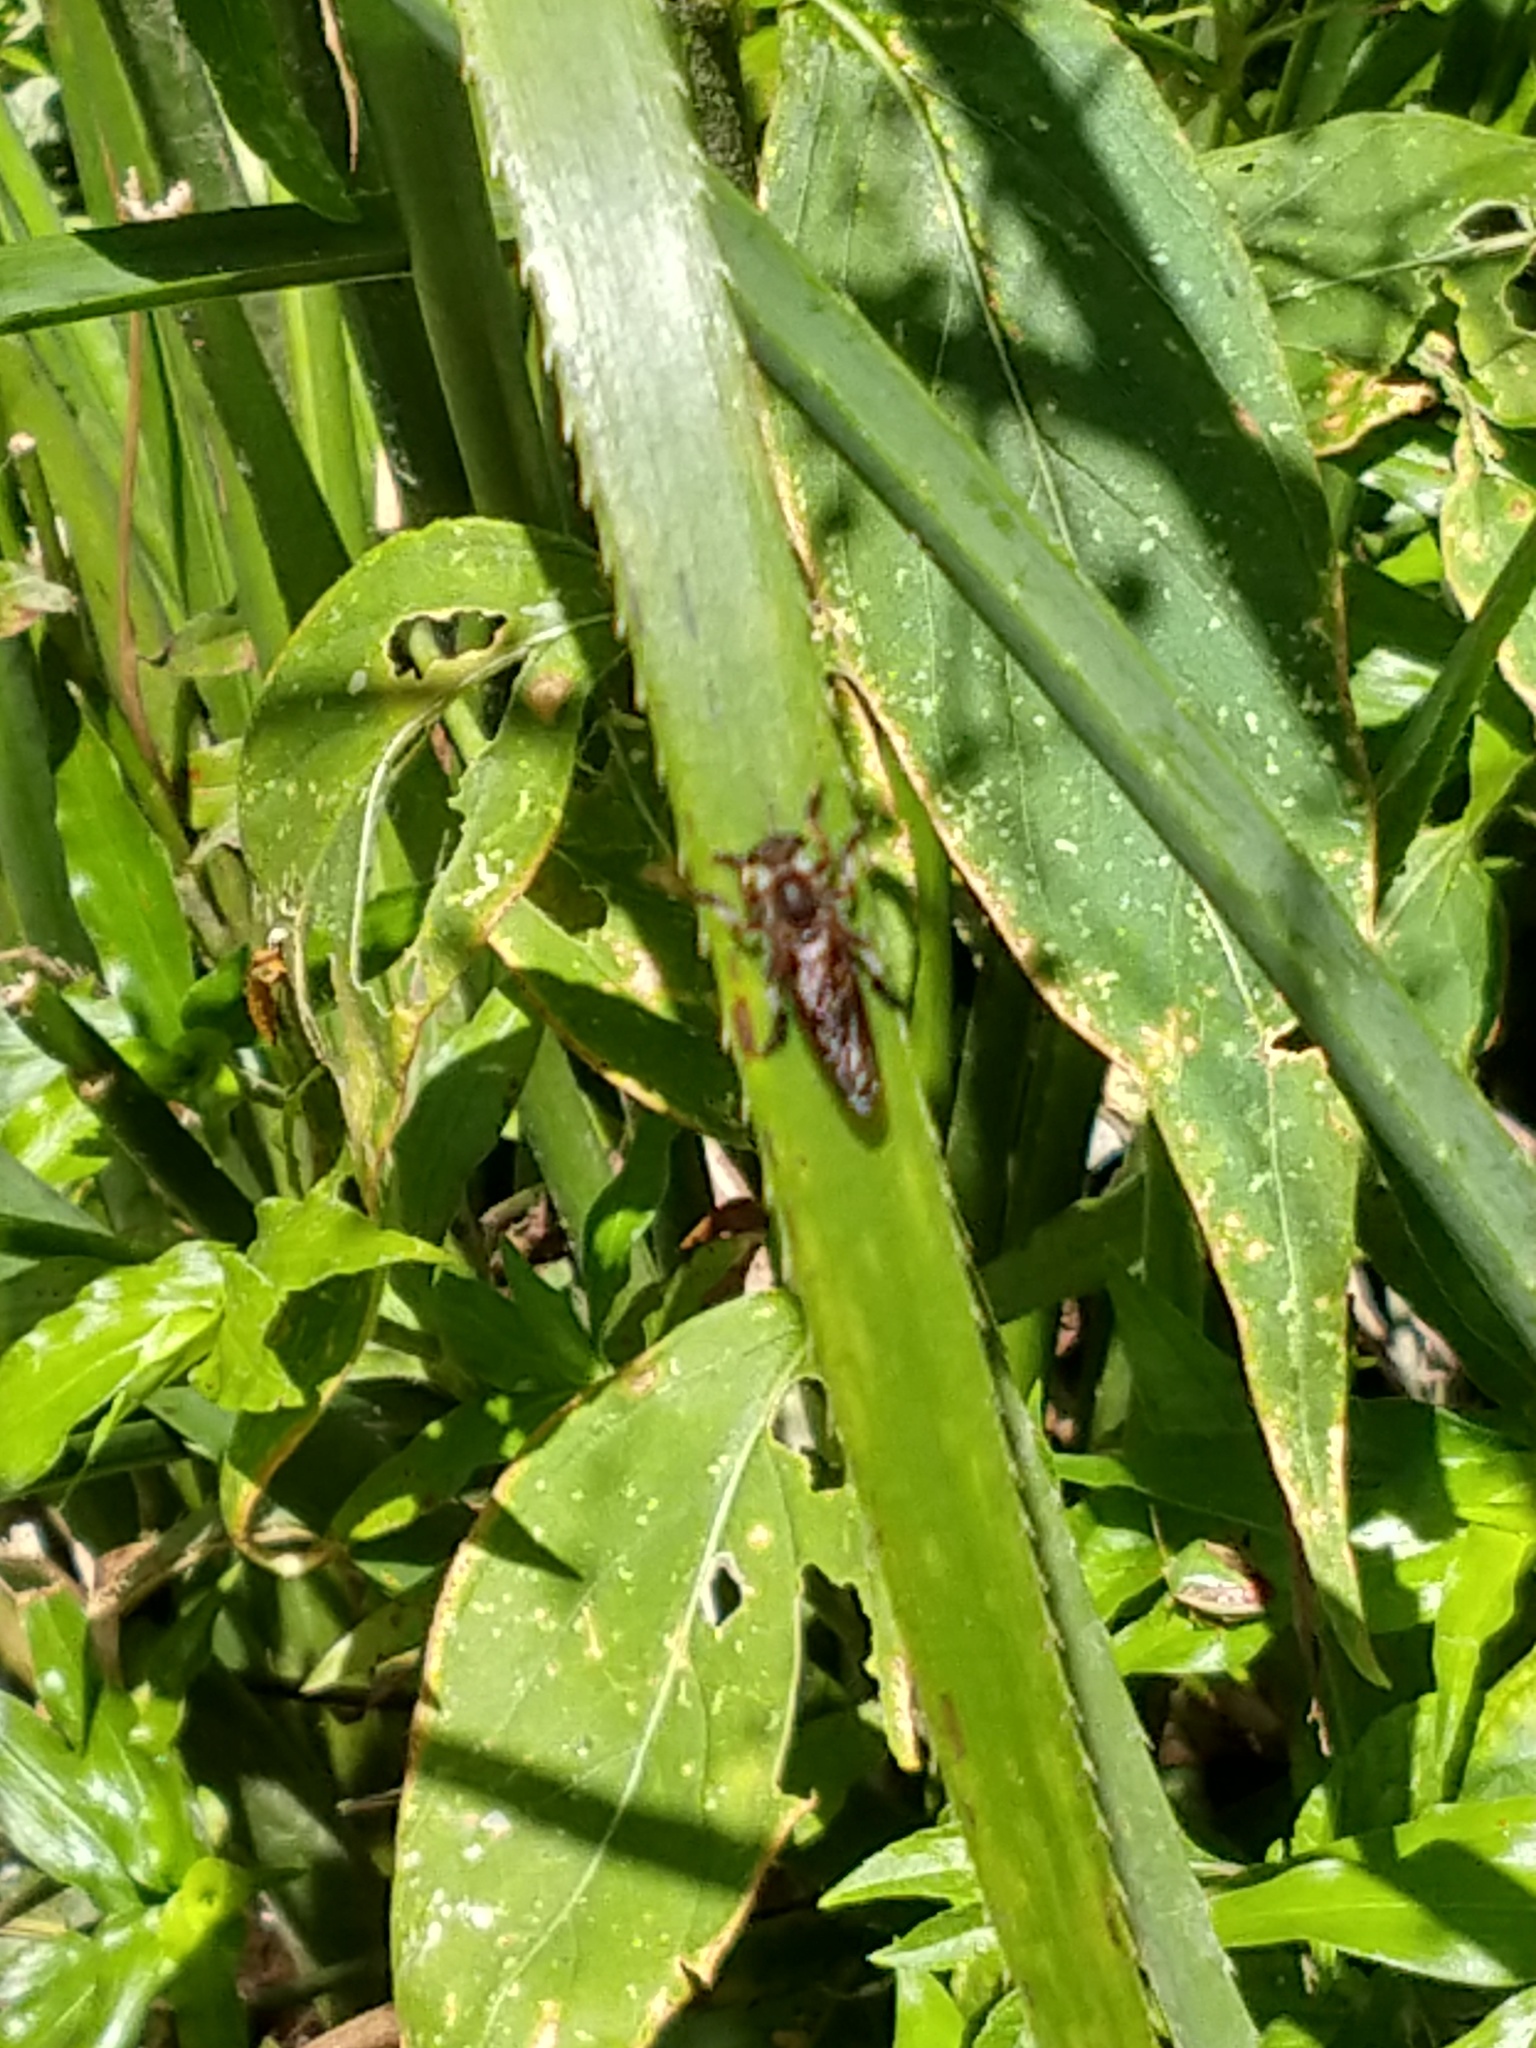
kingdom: Animalia
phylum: Arthropoda
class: Insecta
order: Diptera
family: Asilidae
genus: Mallophora
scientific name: Mallophora bigotii
